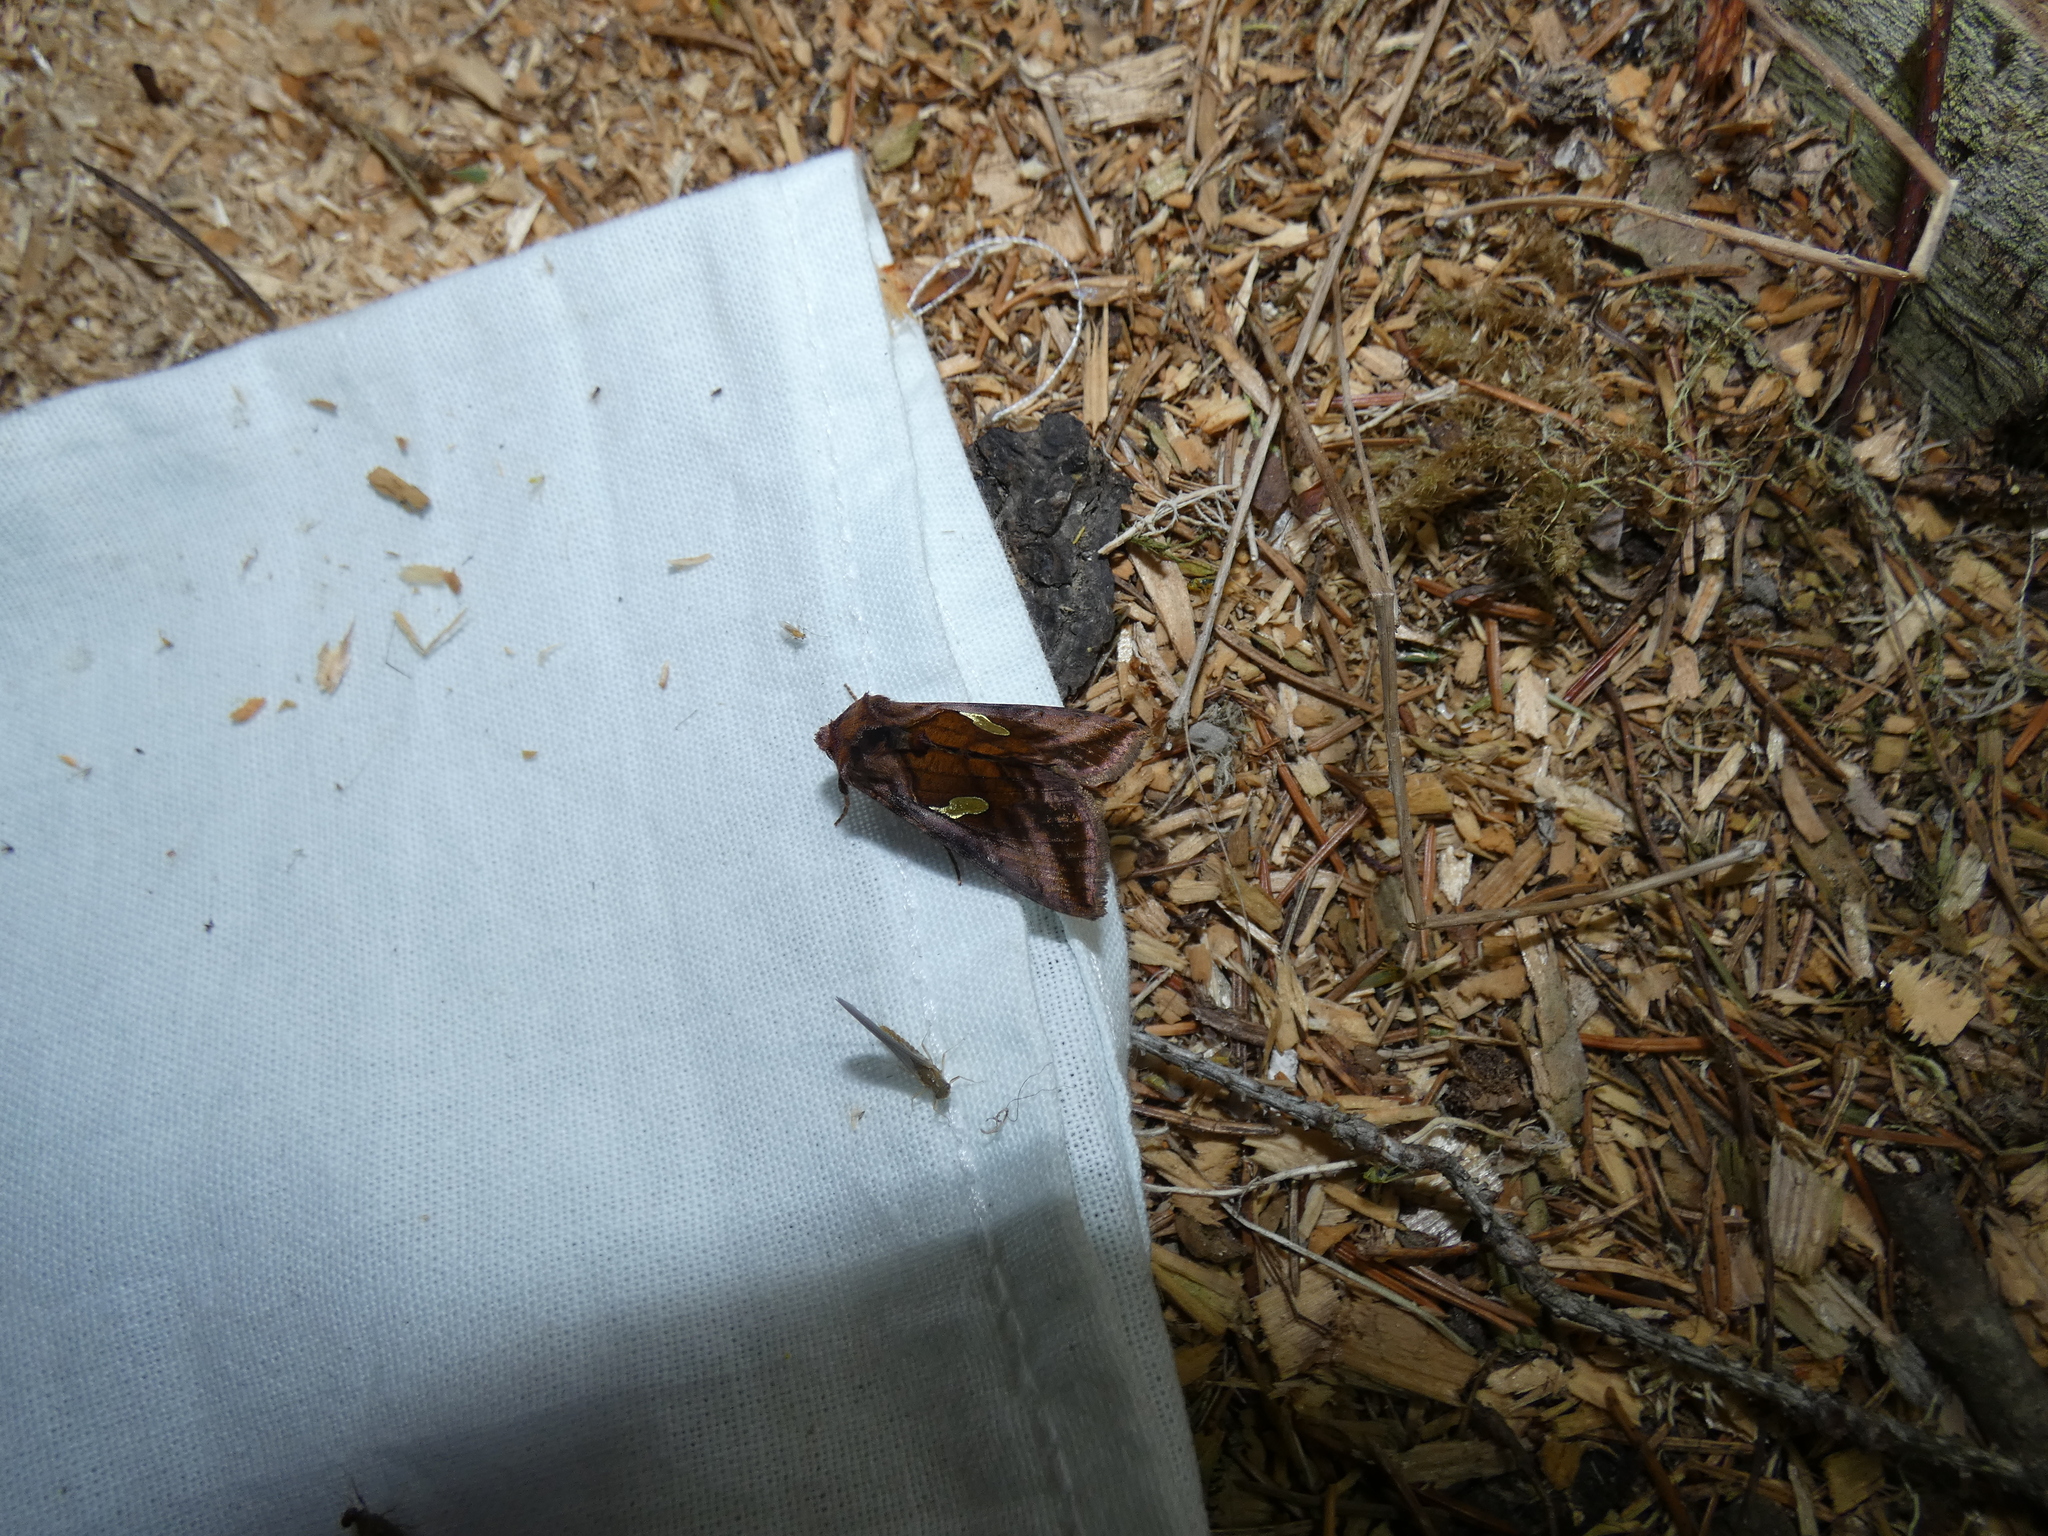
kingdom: Animalia
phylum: Arthropoda
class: Insecta
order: Lepidoptera
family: Noctuidae
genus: Autographa
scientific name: Autographa excelsa
